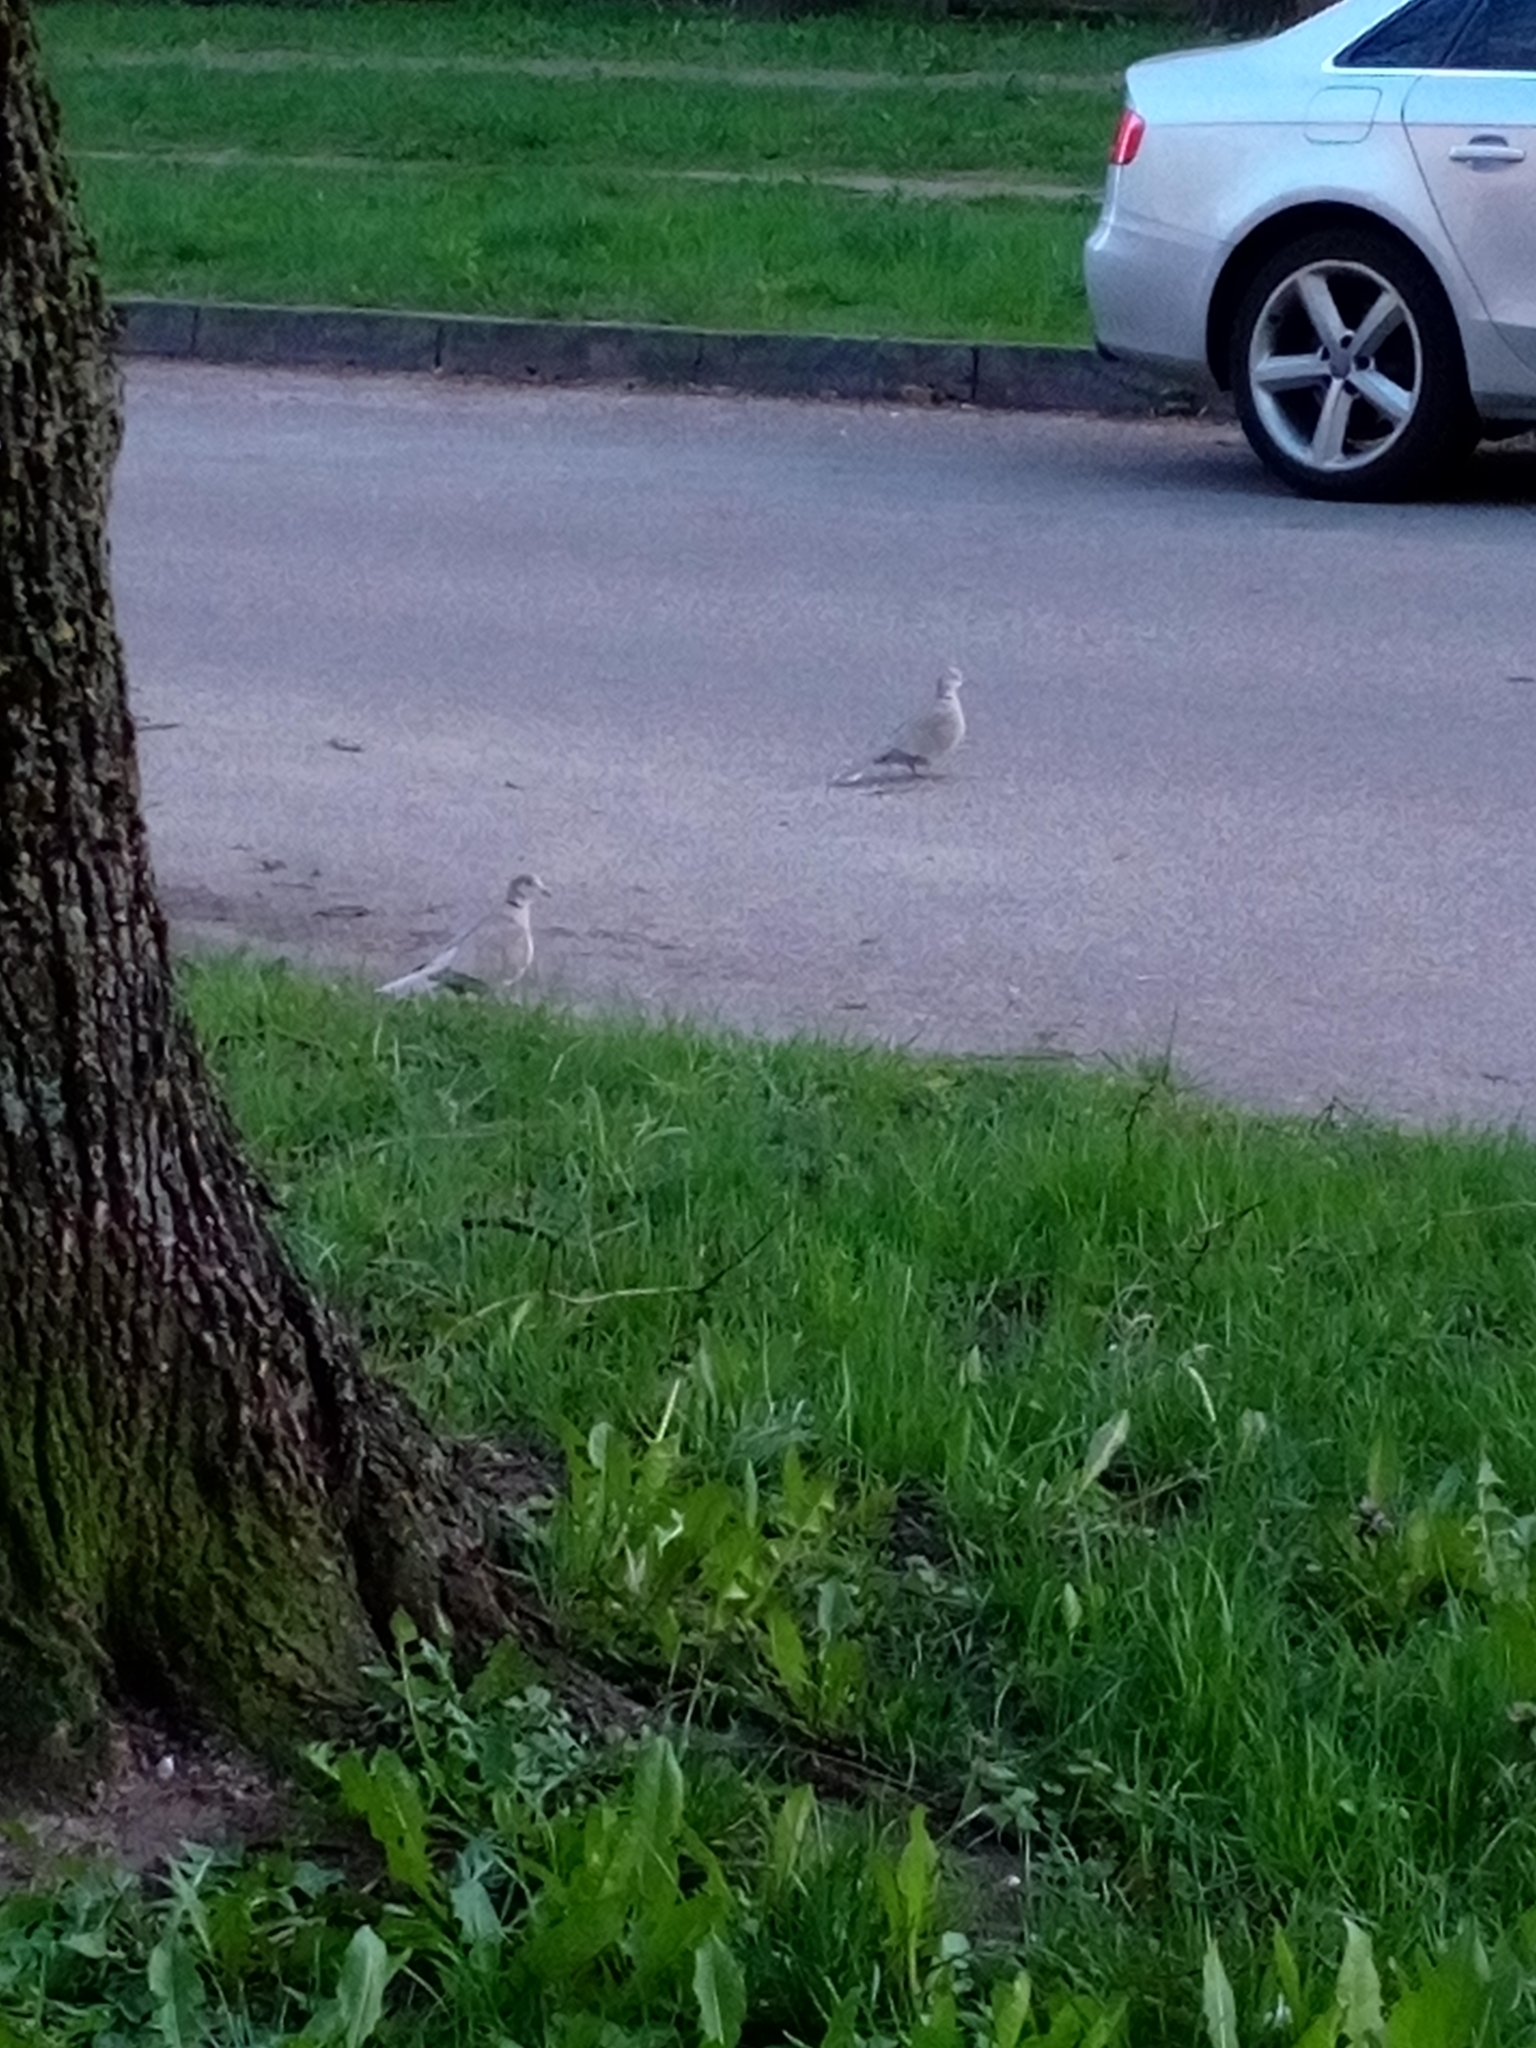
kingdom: Animalia
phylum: Chordata
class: Aves
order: Columbiformes
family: Columbidae
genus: Streptopelia
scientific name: Streptopelia decaocto
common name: Eurasian collared dove
